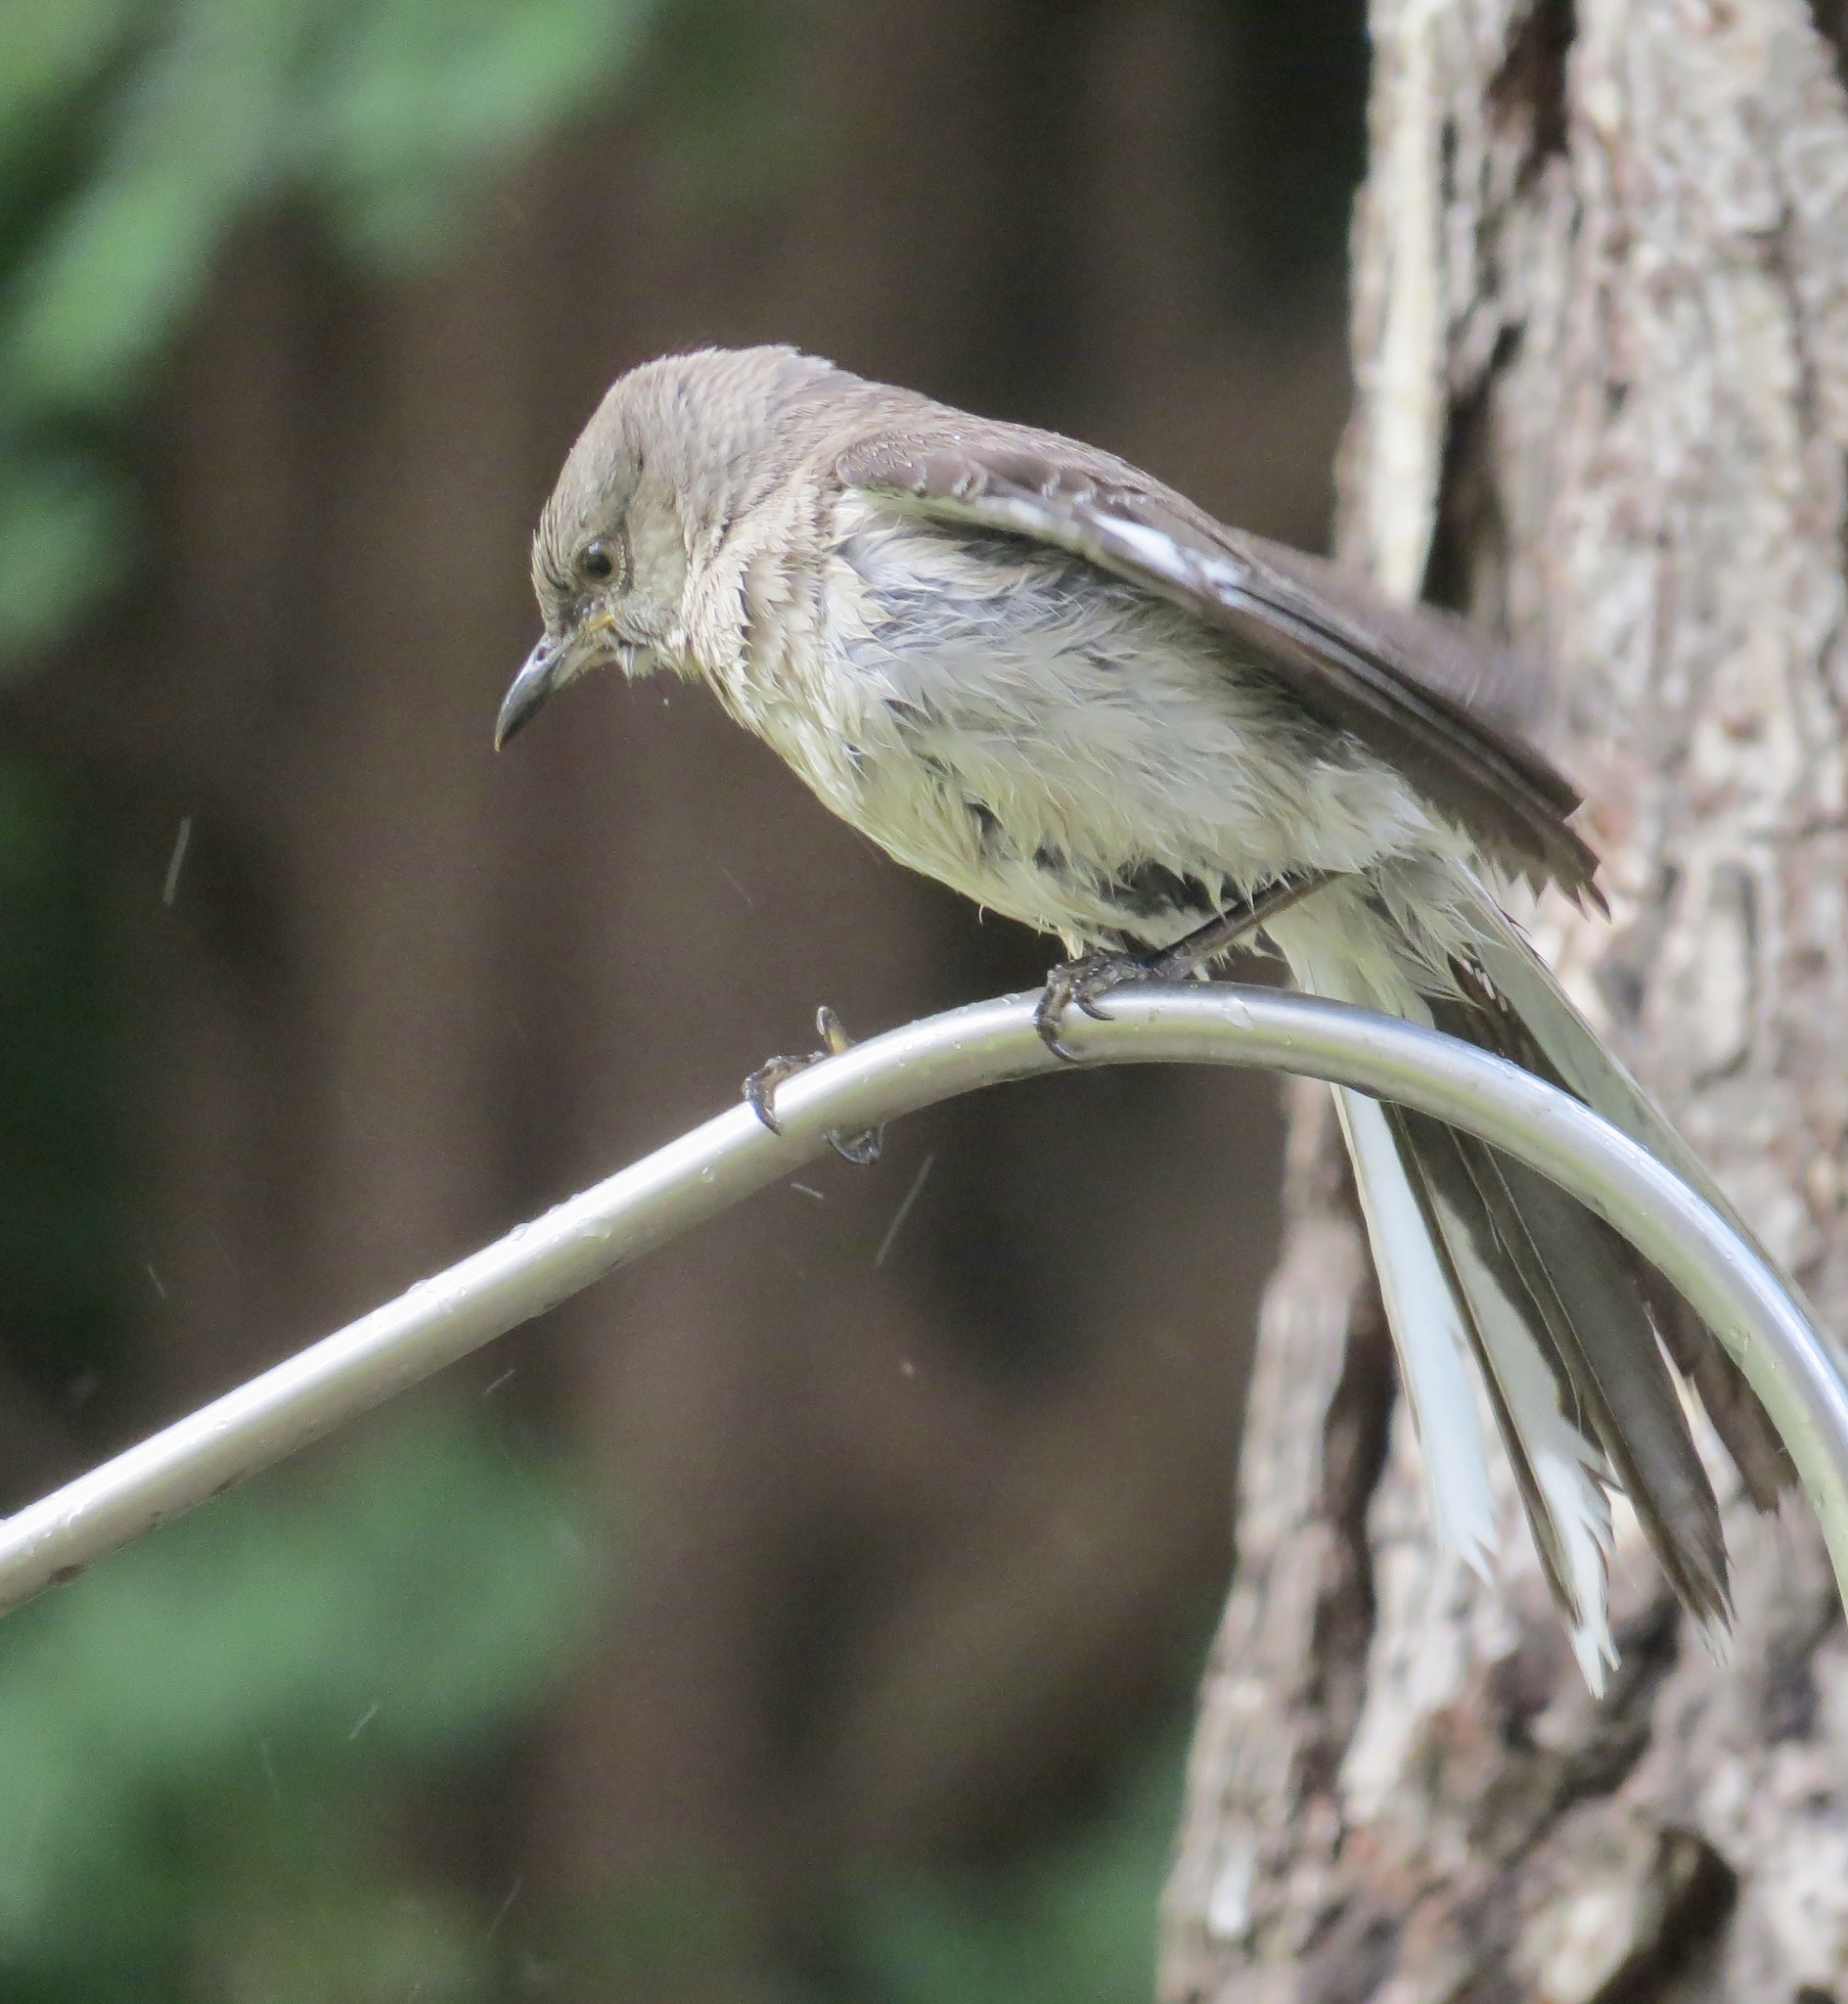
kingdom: Animalia
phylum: Chordata
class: Aves
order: Passeriformes
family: Mimidae
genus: Mimus
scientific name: Mimus polyglottos
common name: Northern mockingbird
